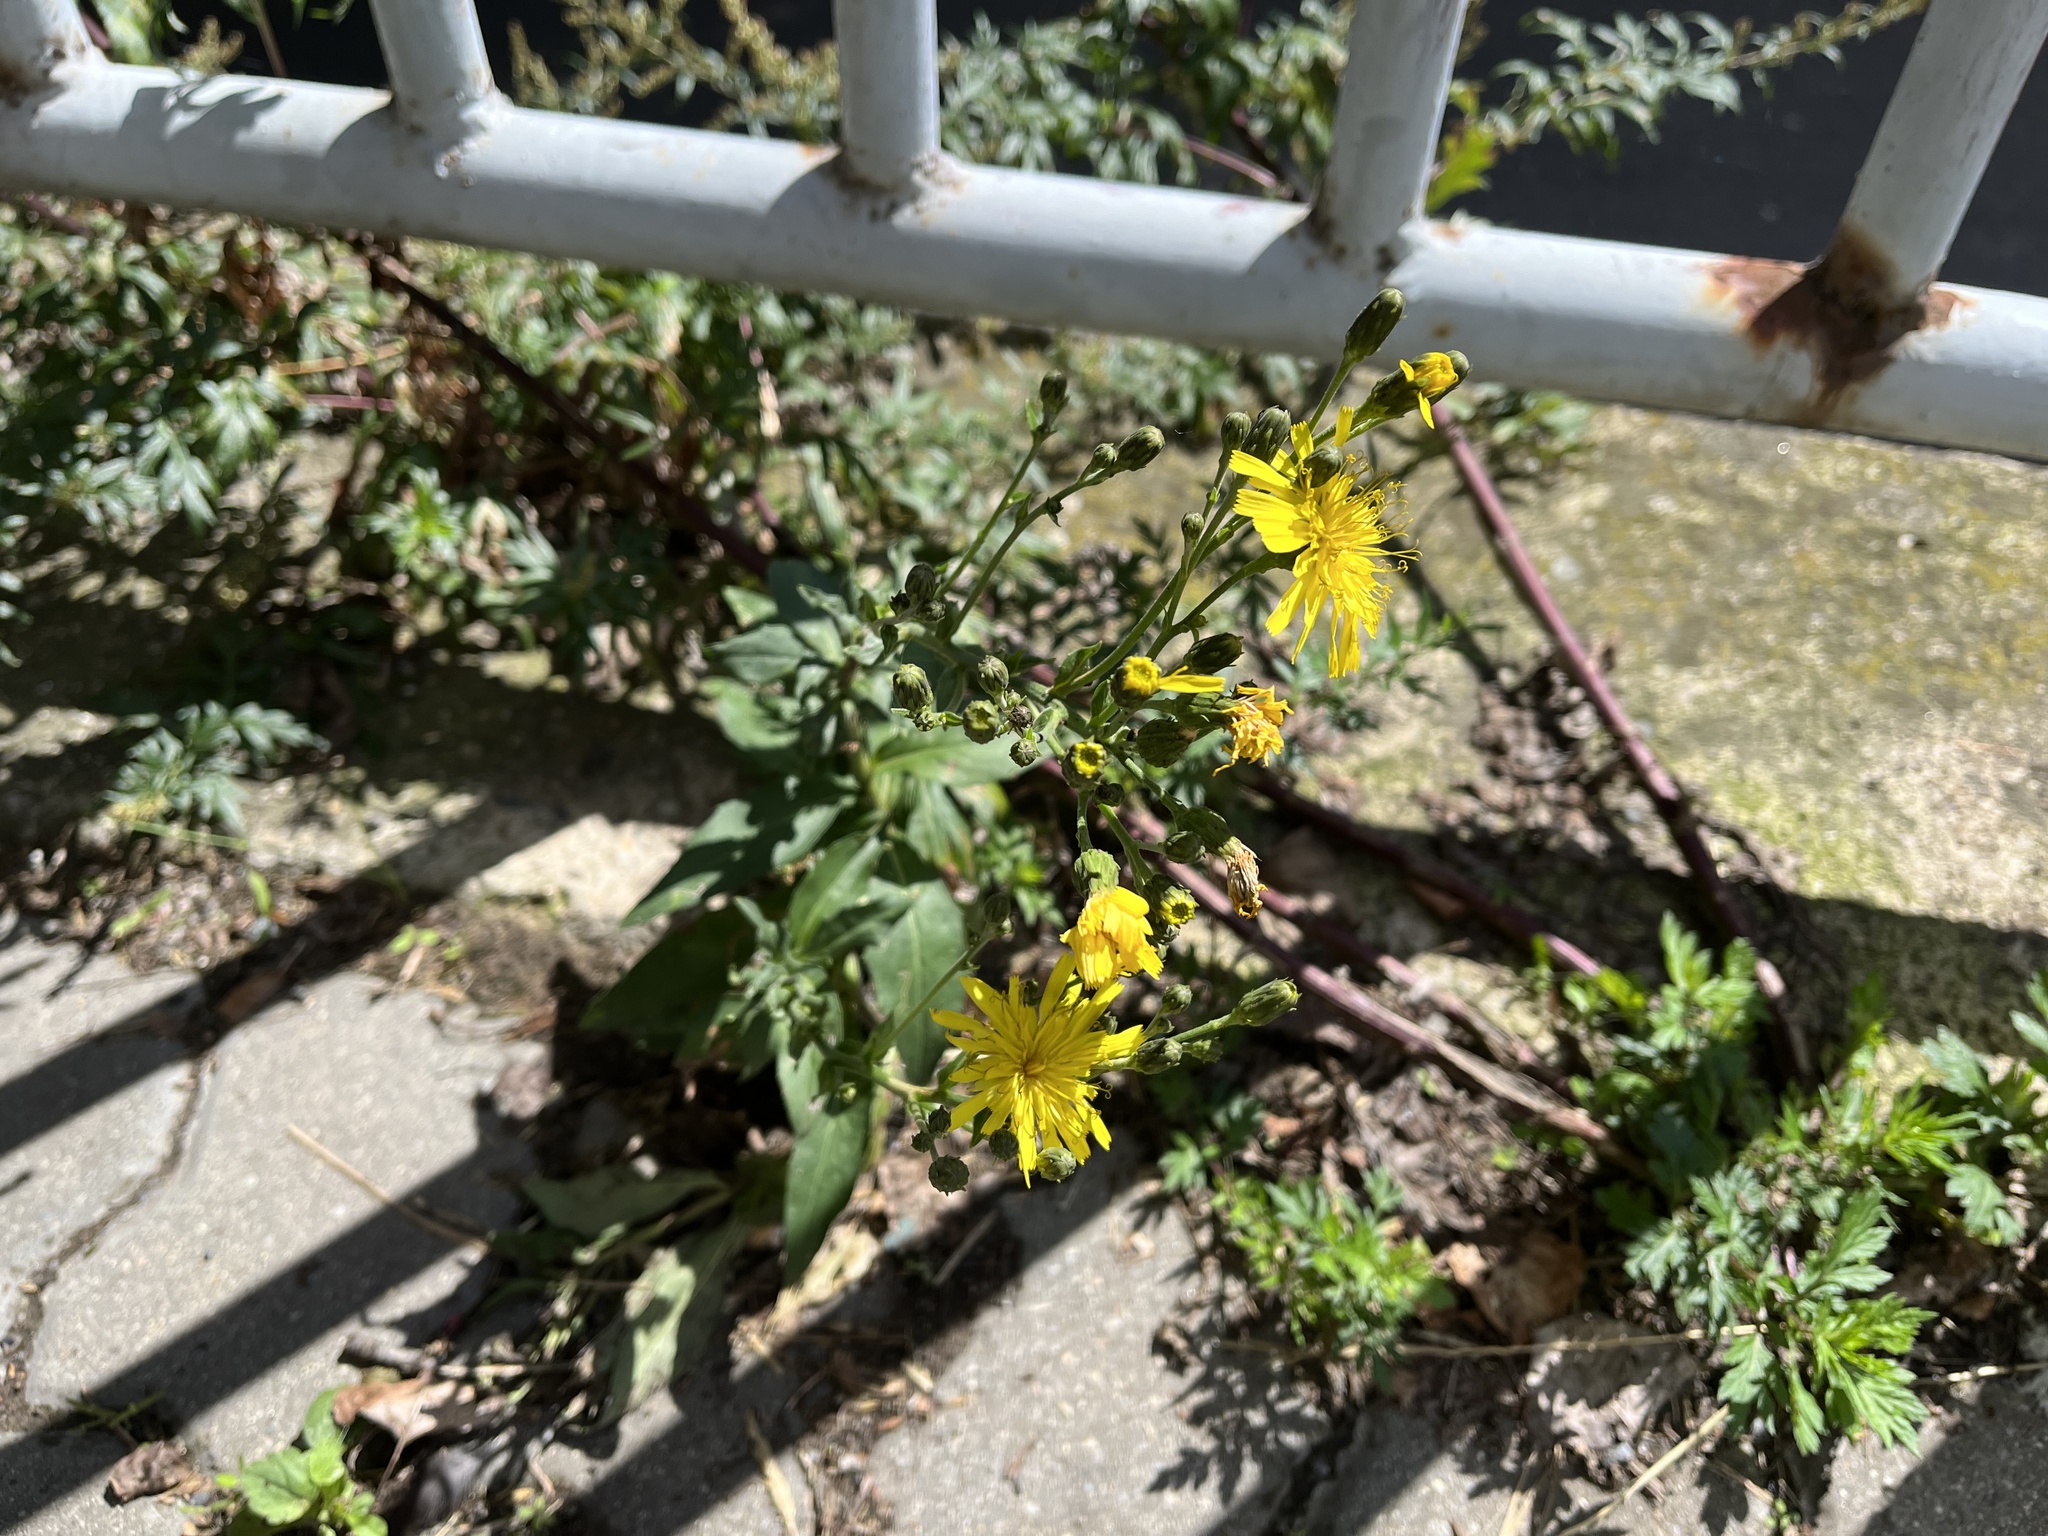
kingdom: Plantae
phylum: Tracheophyta
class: Magnoliopsida
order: Asterales
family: Asteraceae
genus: Hieracium
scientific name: Hieracium sabaudum
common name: New england hawkweed
